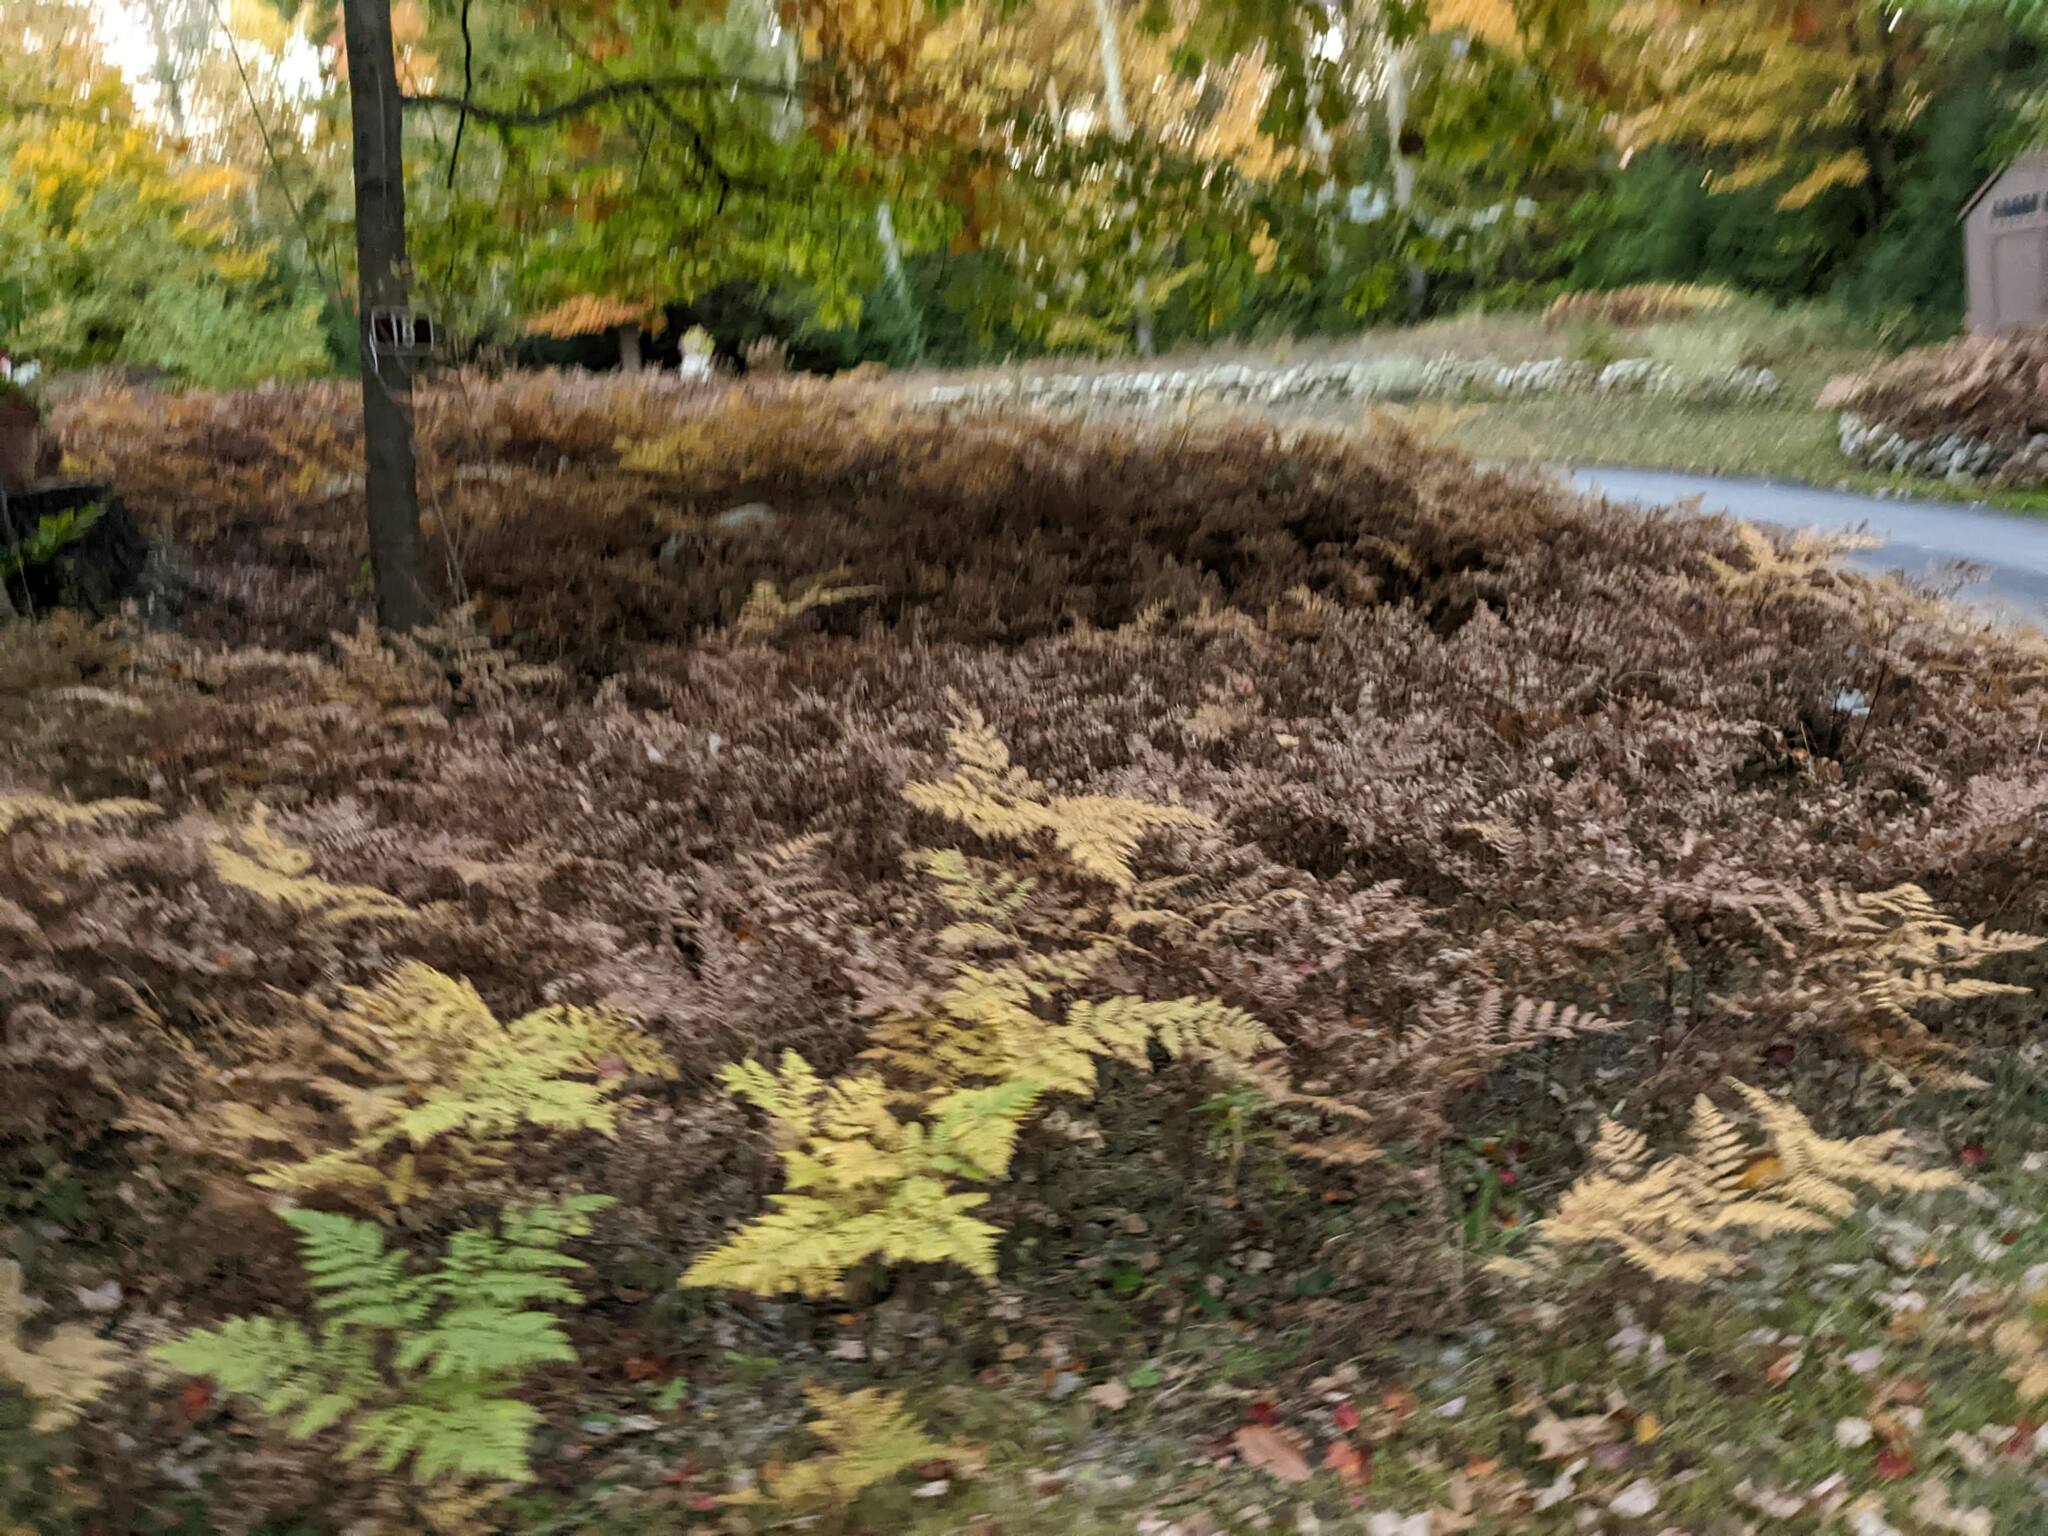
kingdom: Plantae
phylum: Tracheophyta
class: Polypodiopsida
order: Polypodiales
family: Dennstaedtiaceae
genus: Pteridium
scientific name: Pteridium aquilinum
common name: Bracken
